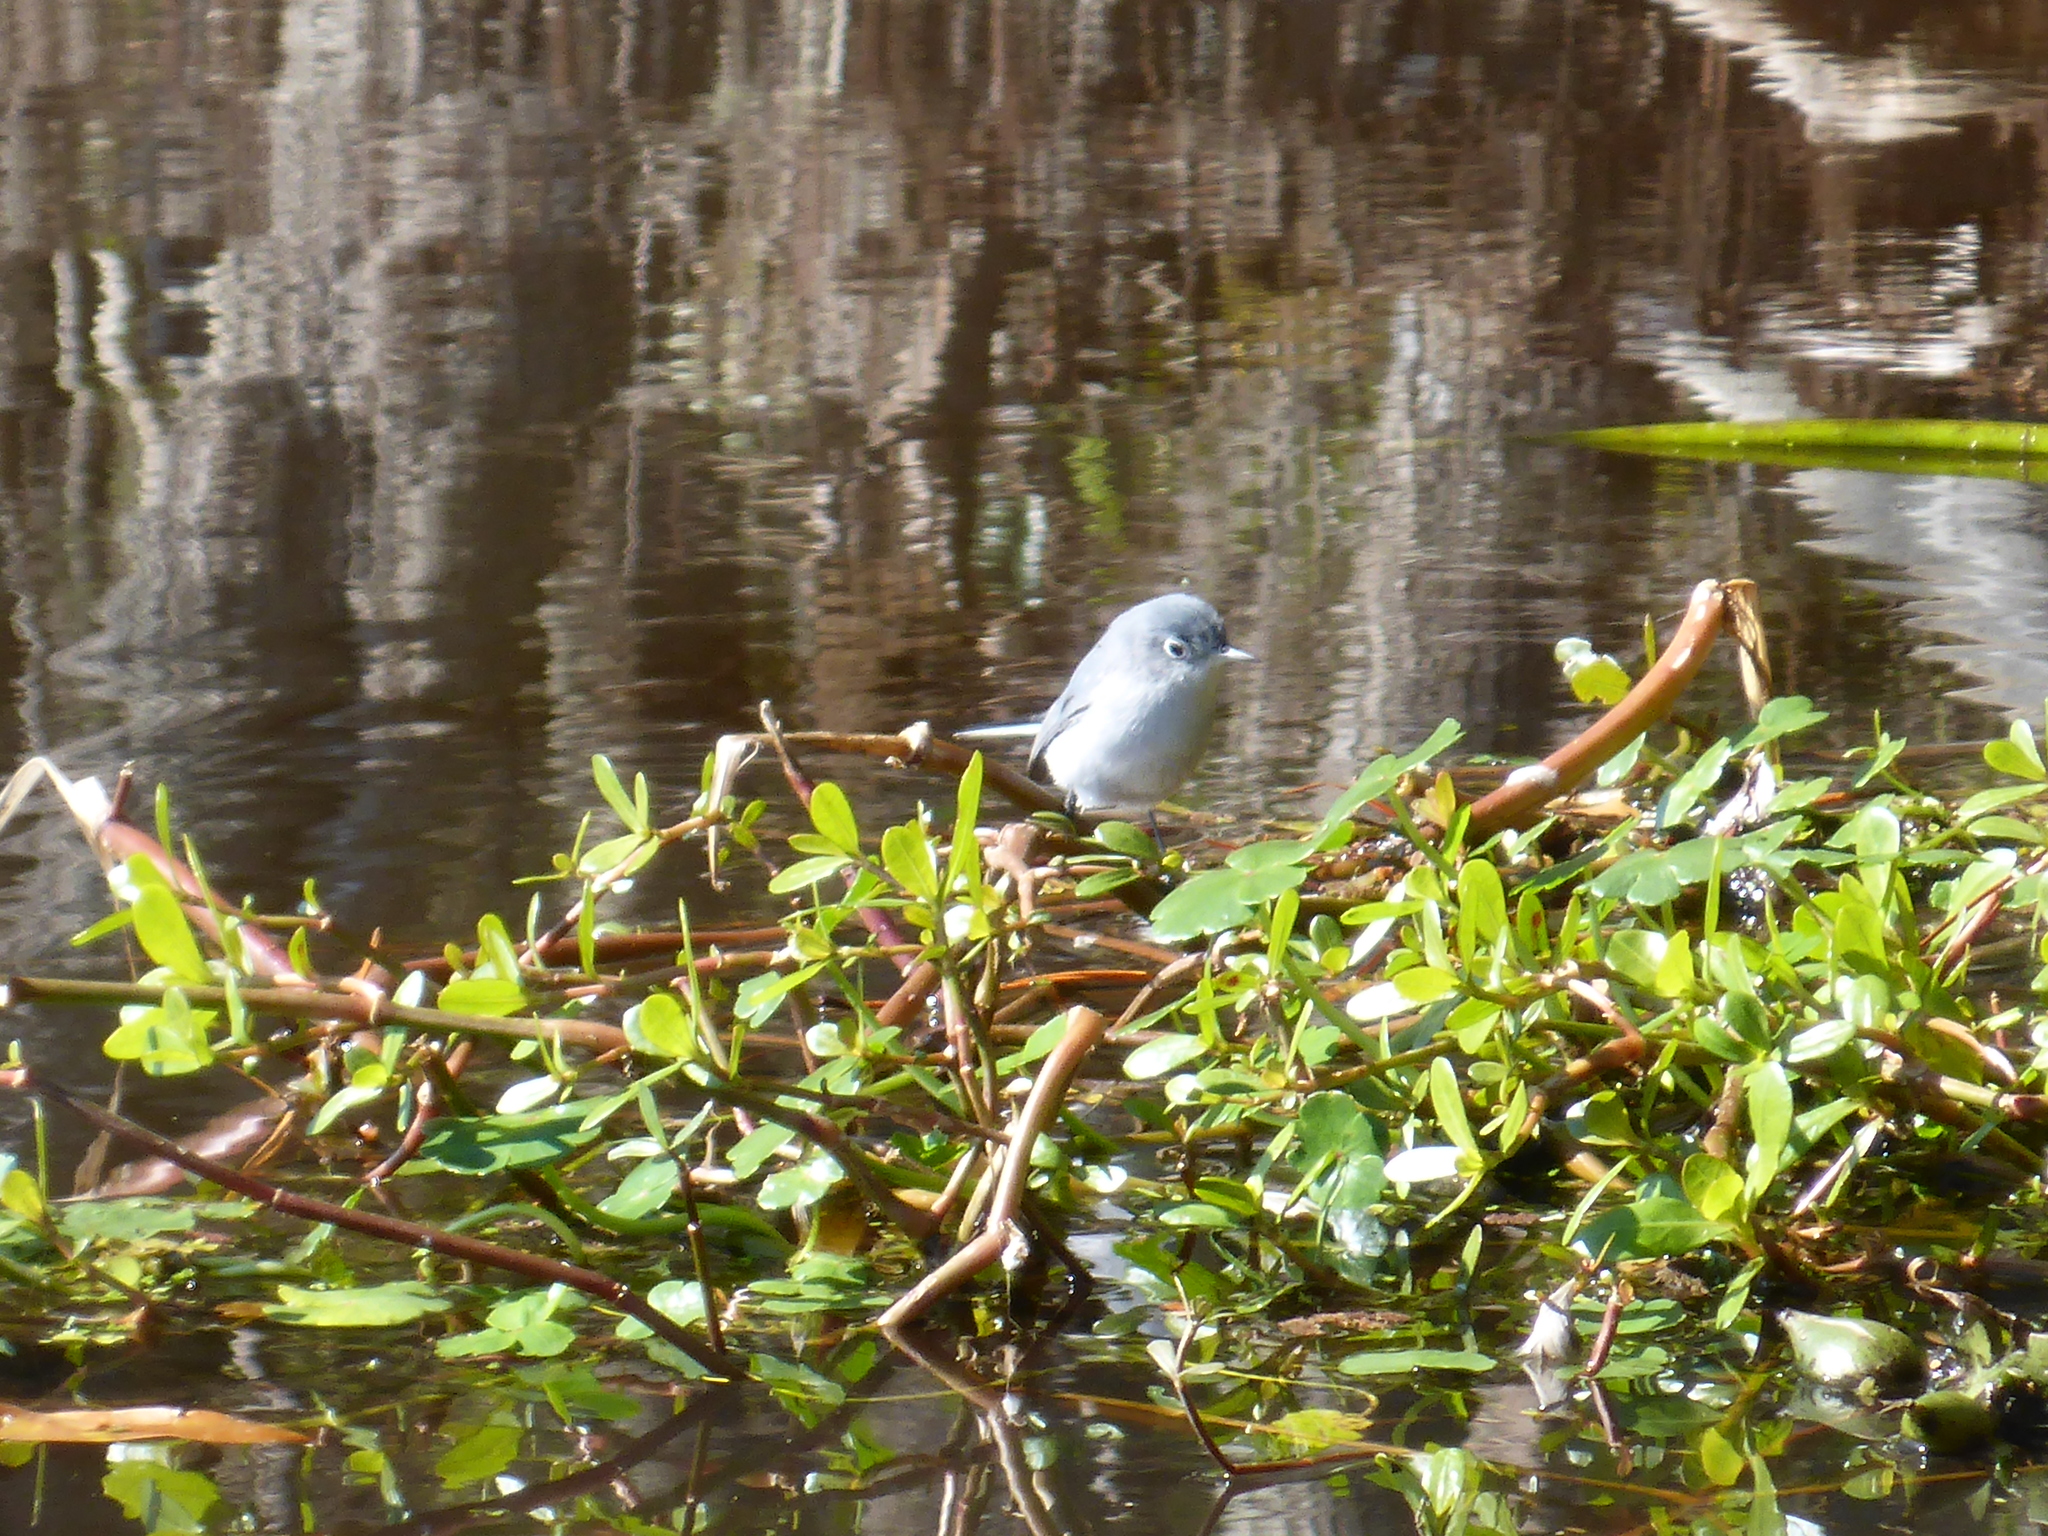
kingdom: Animalia
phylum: Chordata
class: Aves
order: Passeriformes
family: Polioptilidae
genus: Polioptila
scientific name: Polioptila caerulea
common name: Blue-gray gnatcatcher
